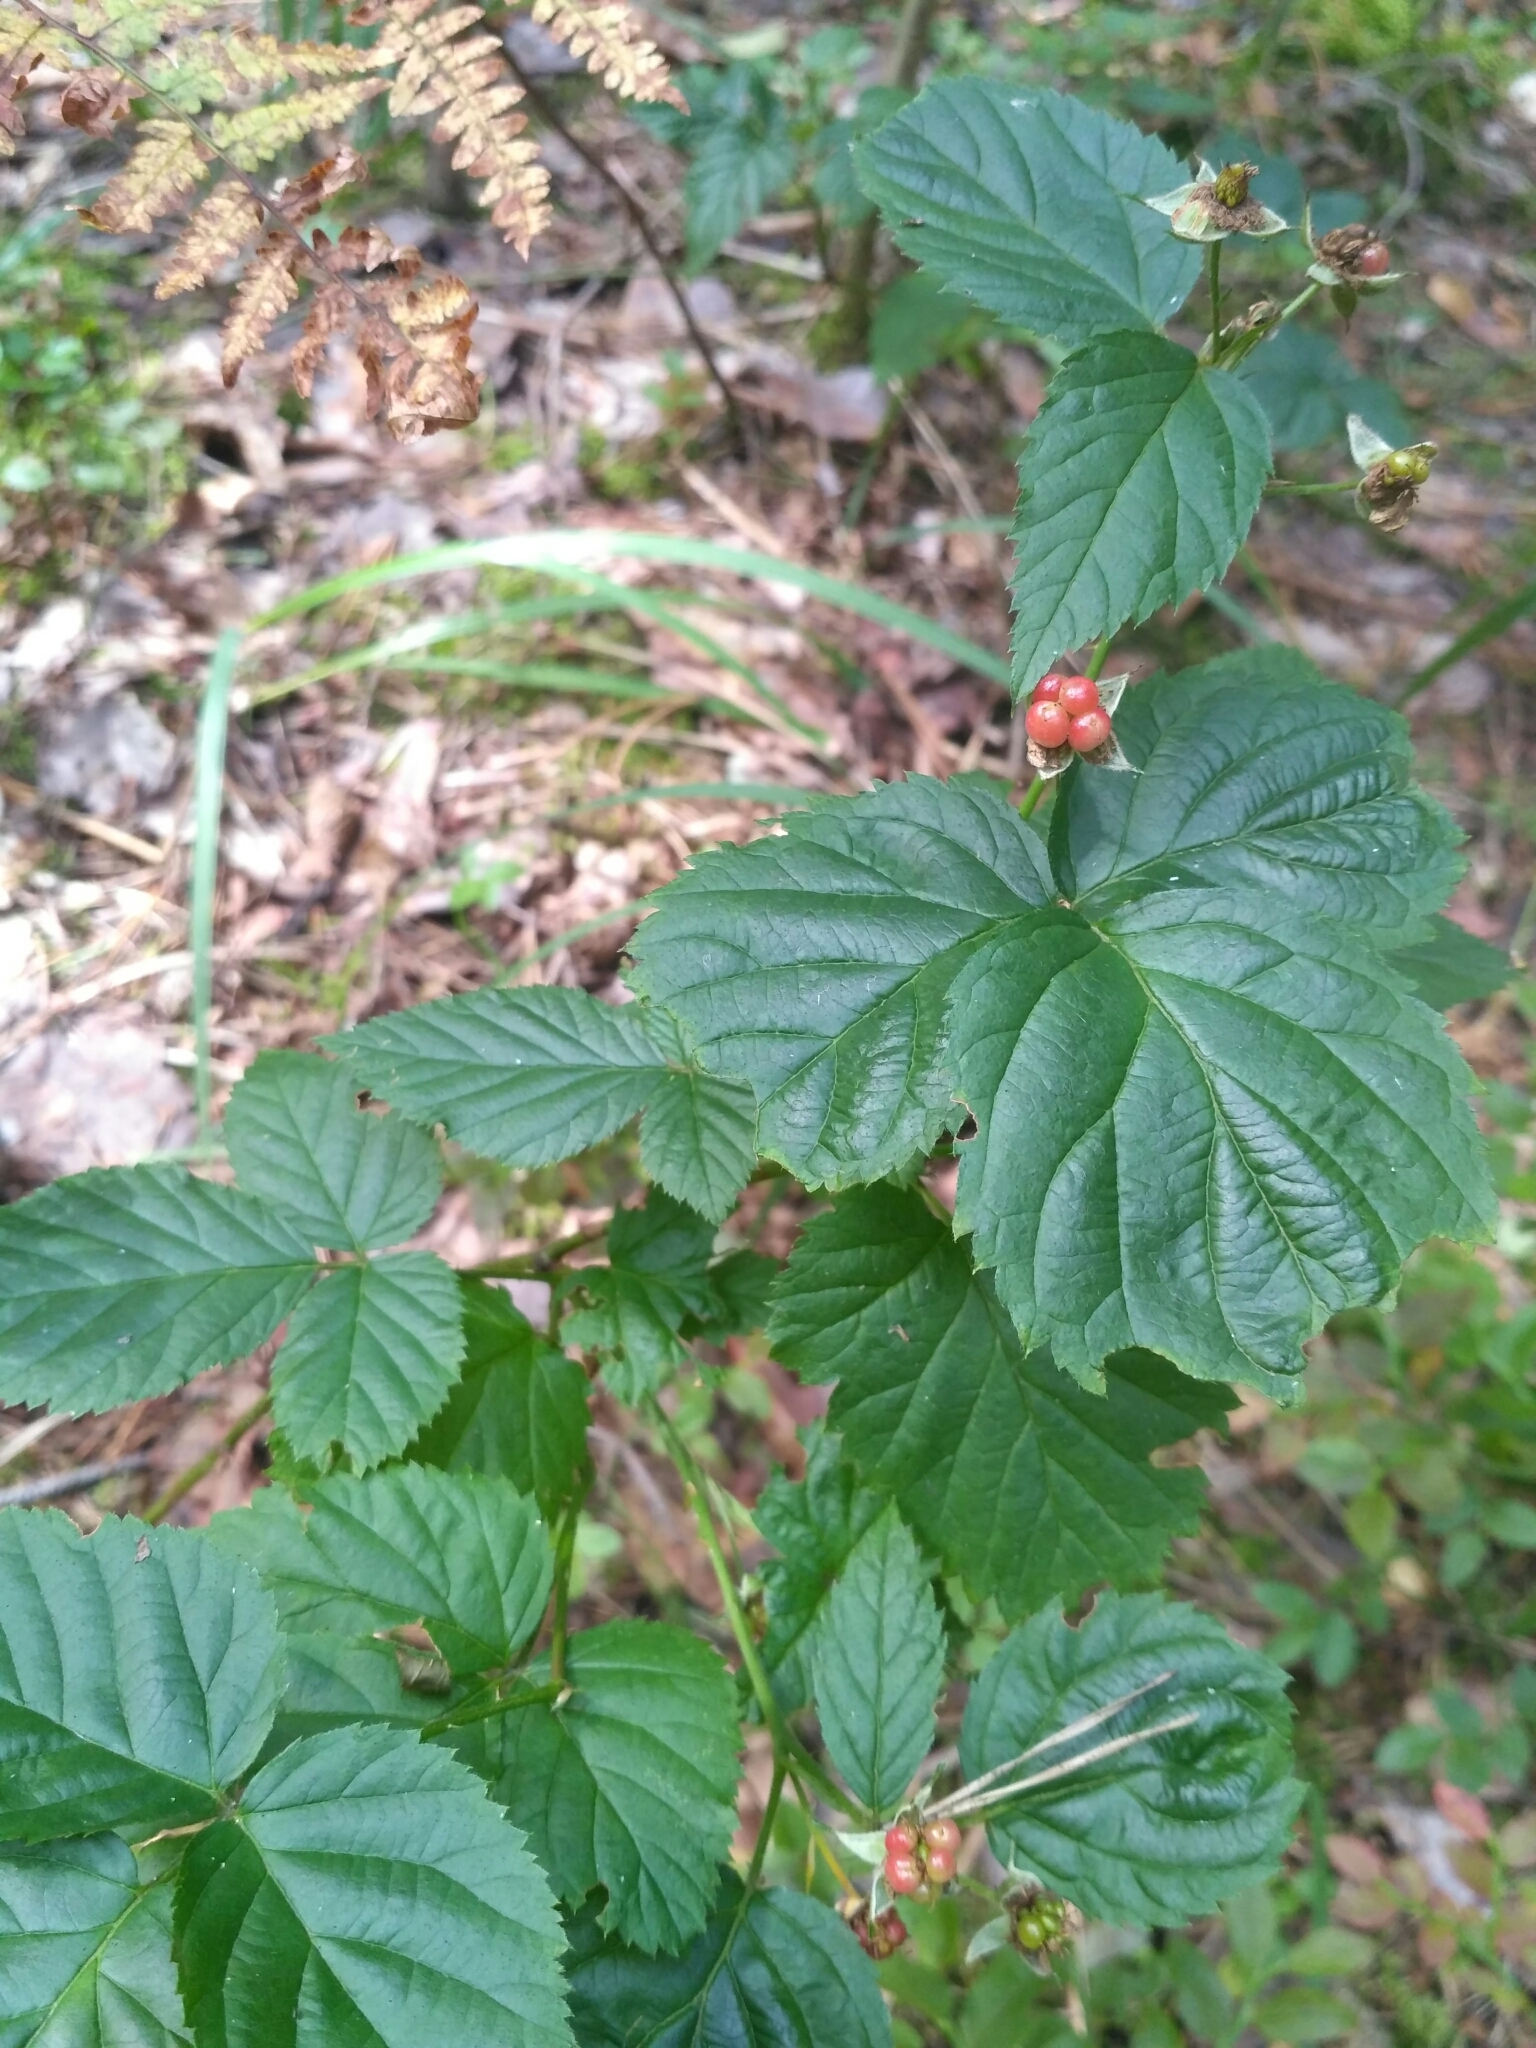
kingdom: Plantae
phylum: Tracheophyta
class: Magnoliopsida
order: Rosales
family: Rosaceae
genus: Rubus
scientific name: Rubus polonicus
